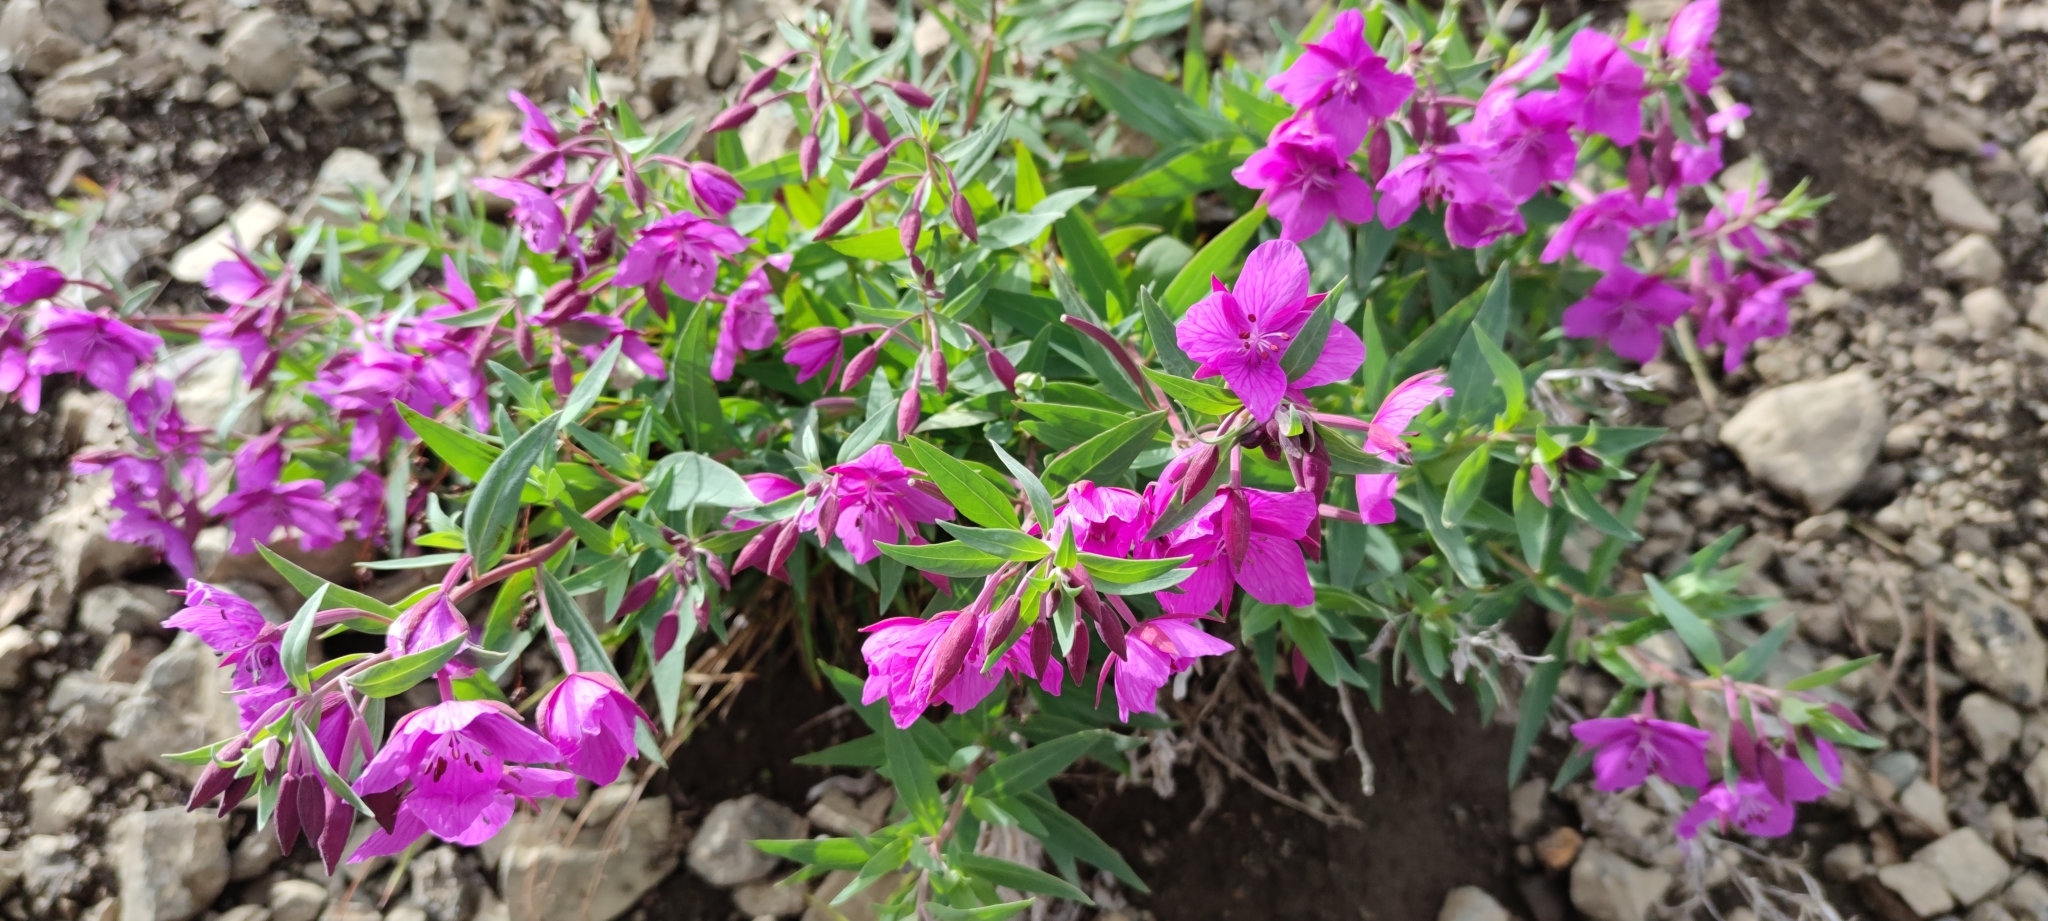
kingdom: Plantae
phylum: Tracheophyta
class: Magnoliopsida
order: Myrtales
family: Onagraceae
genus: Chamaenerion
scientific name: Chamaenerion latifolium
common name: Dwarf fireweed
